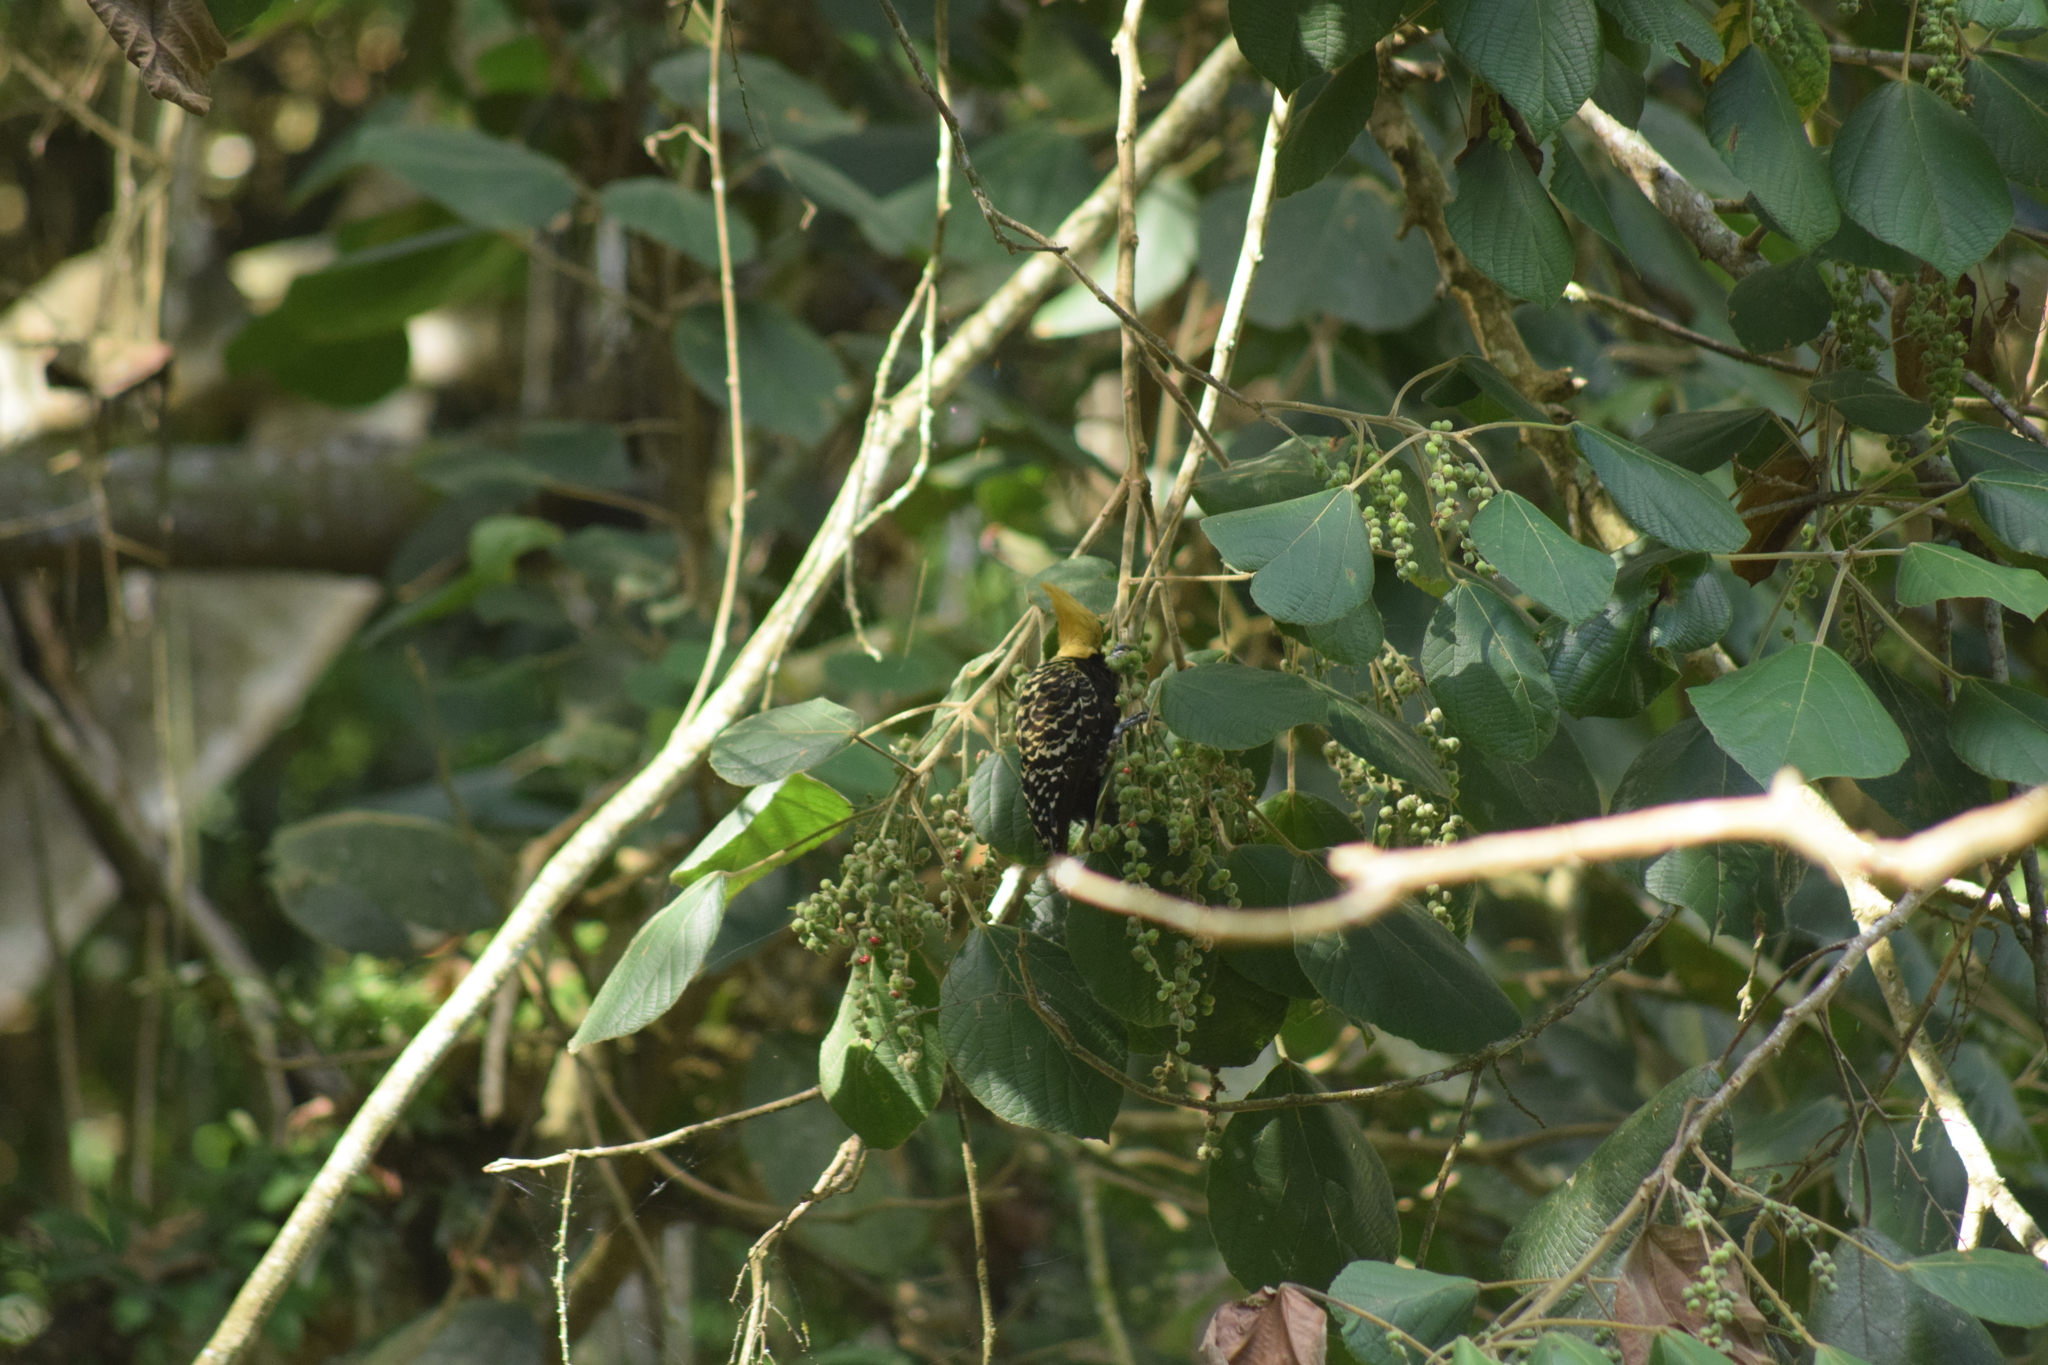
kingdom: Animalia
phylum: Chordata
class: Aves
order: Piciformes
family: Picidae
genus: Celeus
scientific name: Celeus flavescens
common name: Blond-crested woodpecker
